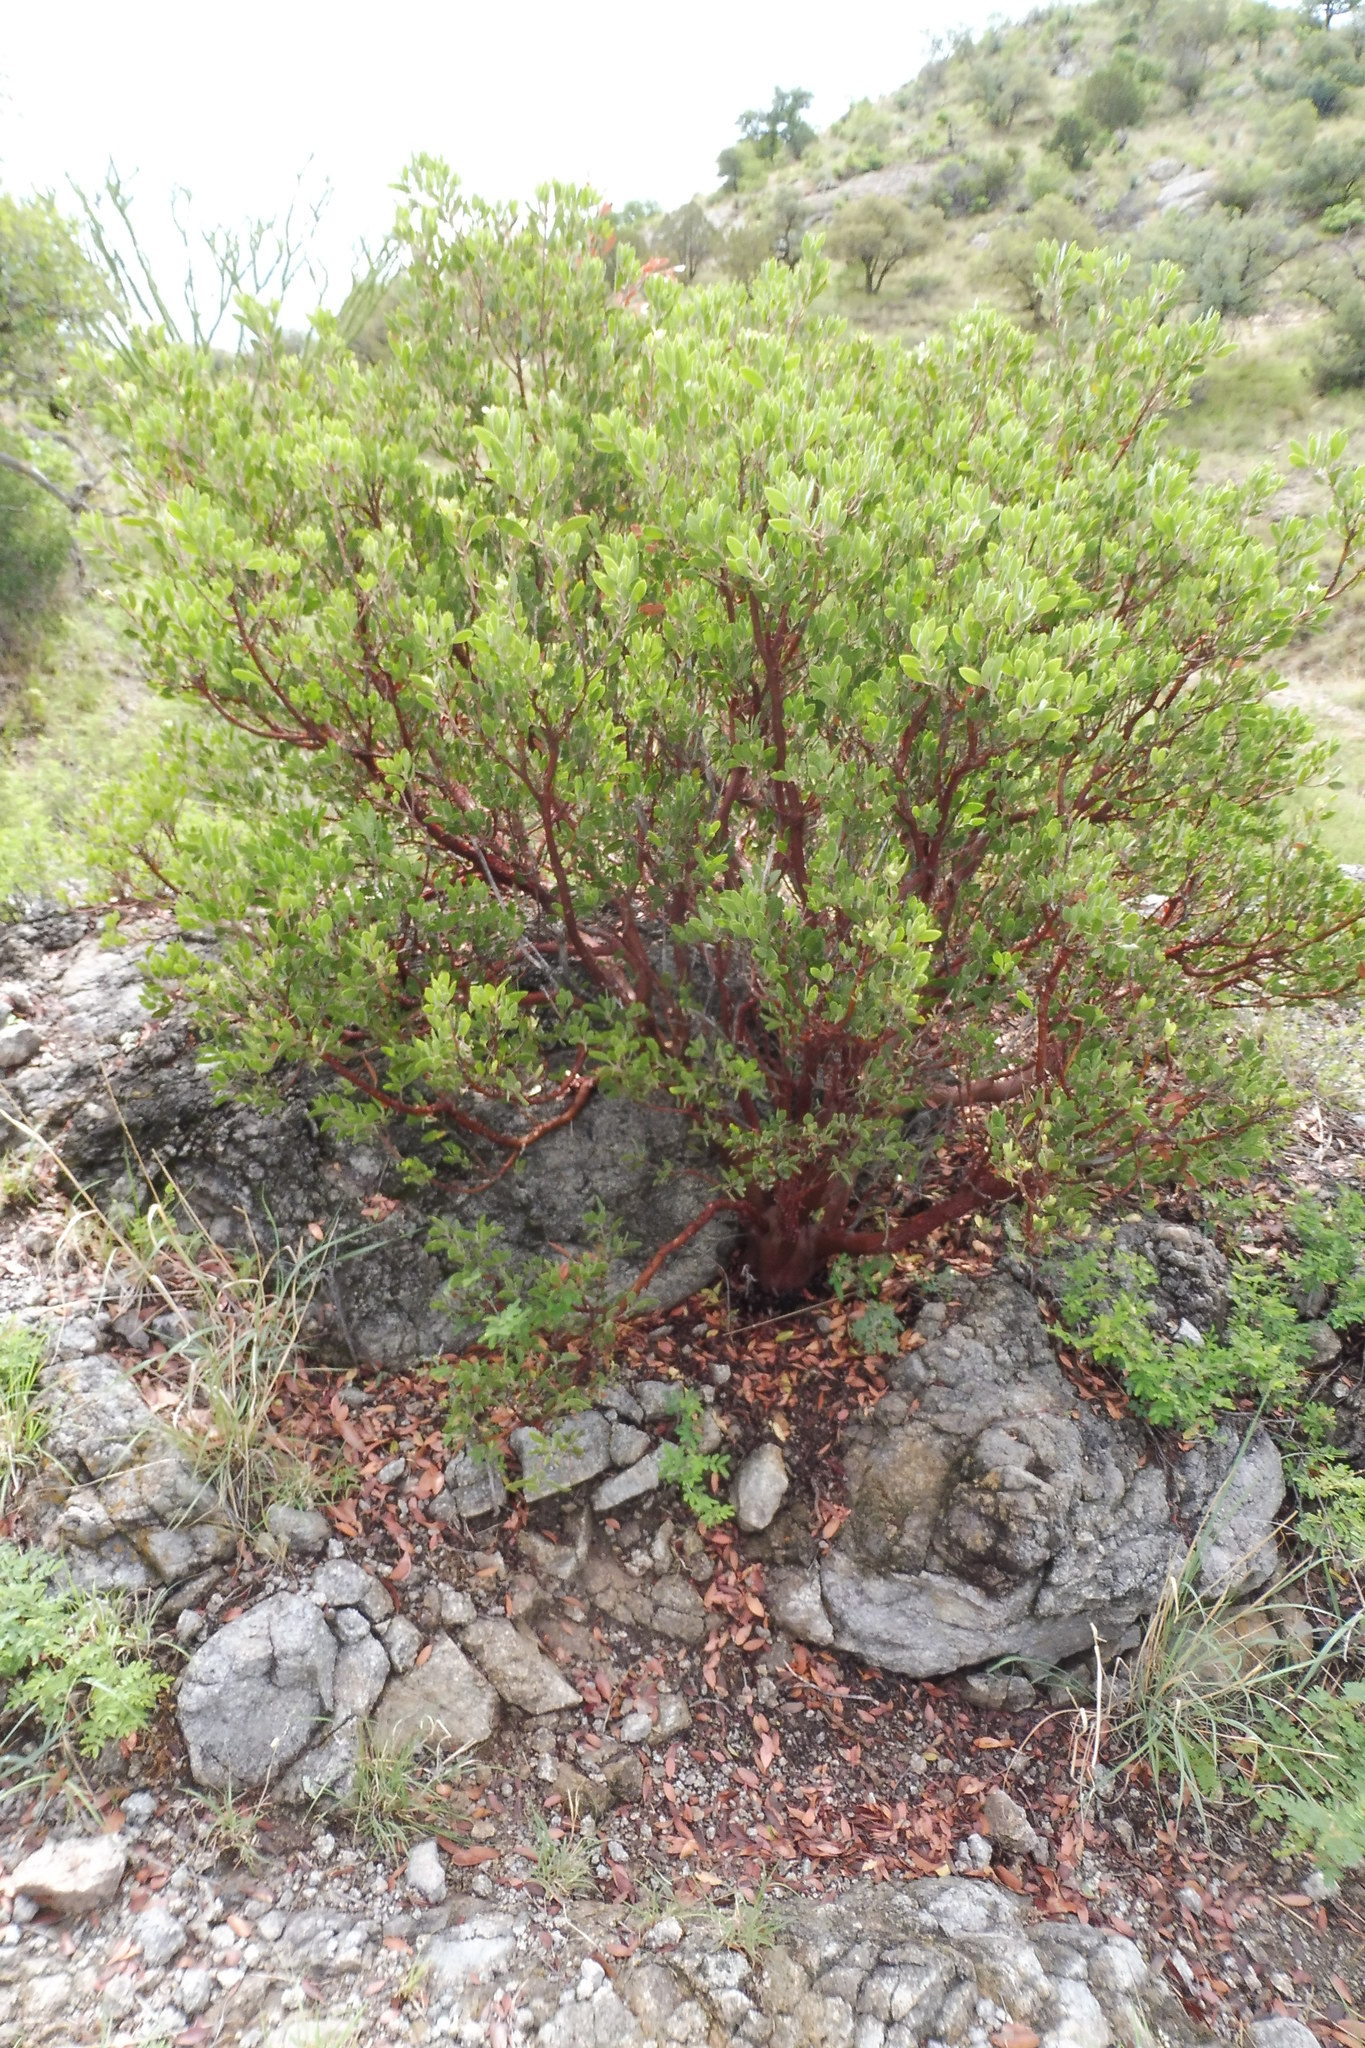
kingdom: Plantae
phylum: Tracheophyta
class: Magnoliopsida
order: Ericales
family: Ericaceae
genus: Arctostaphylos
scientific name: Arctostaphylos pungens
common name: Mexican manzanita
